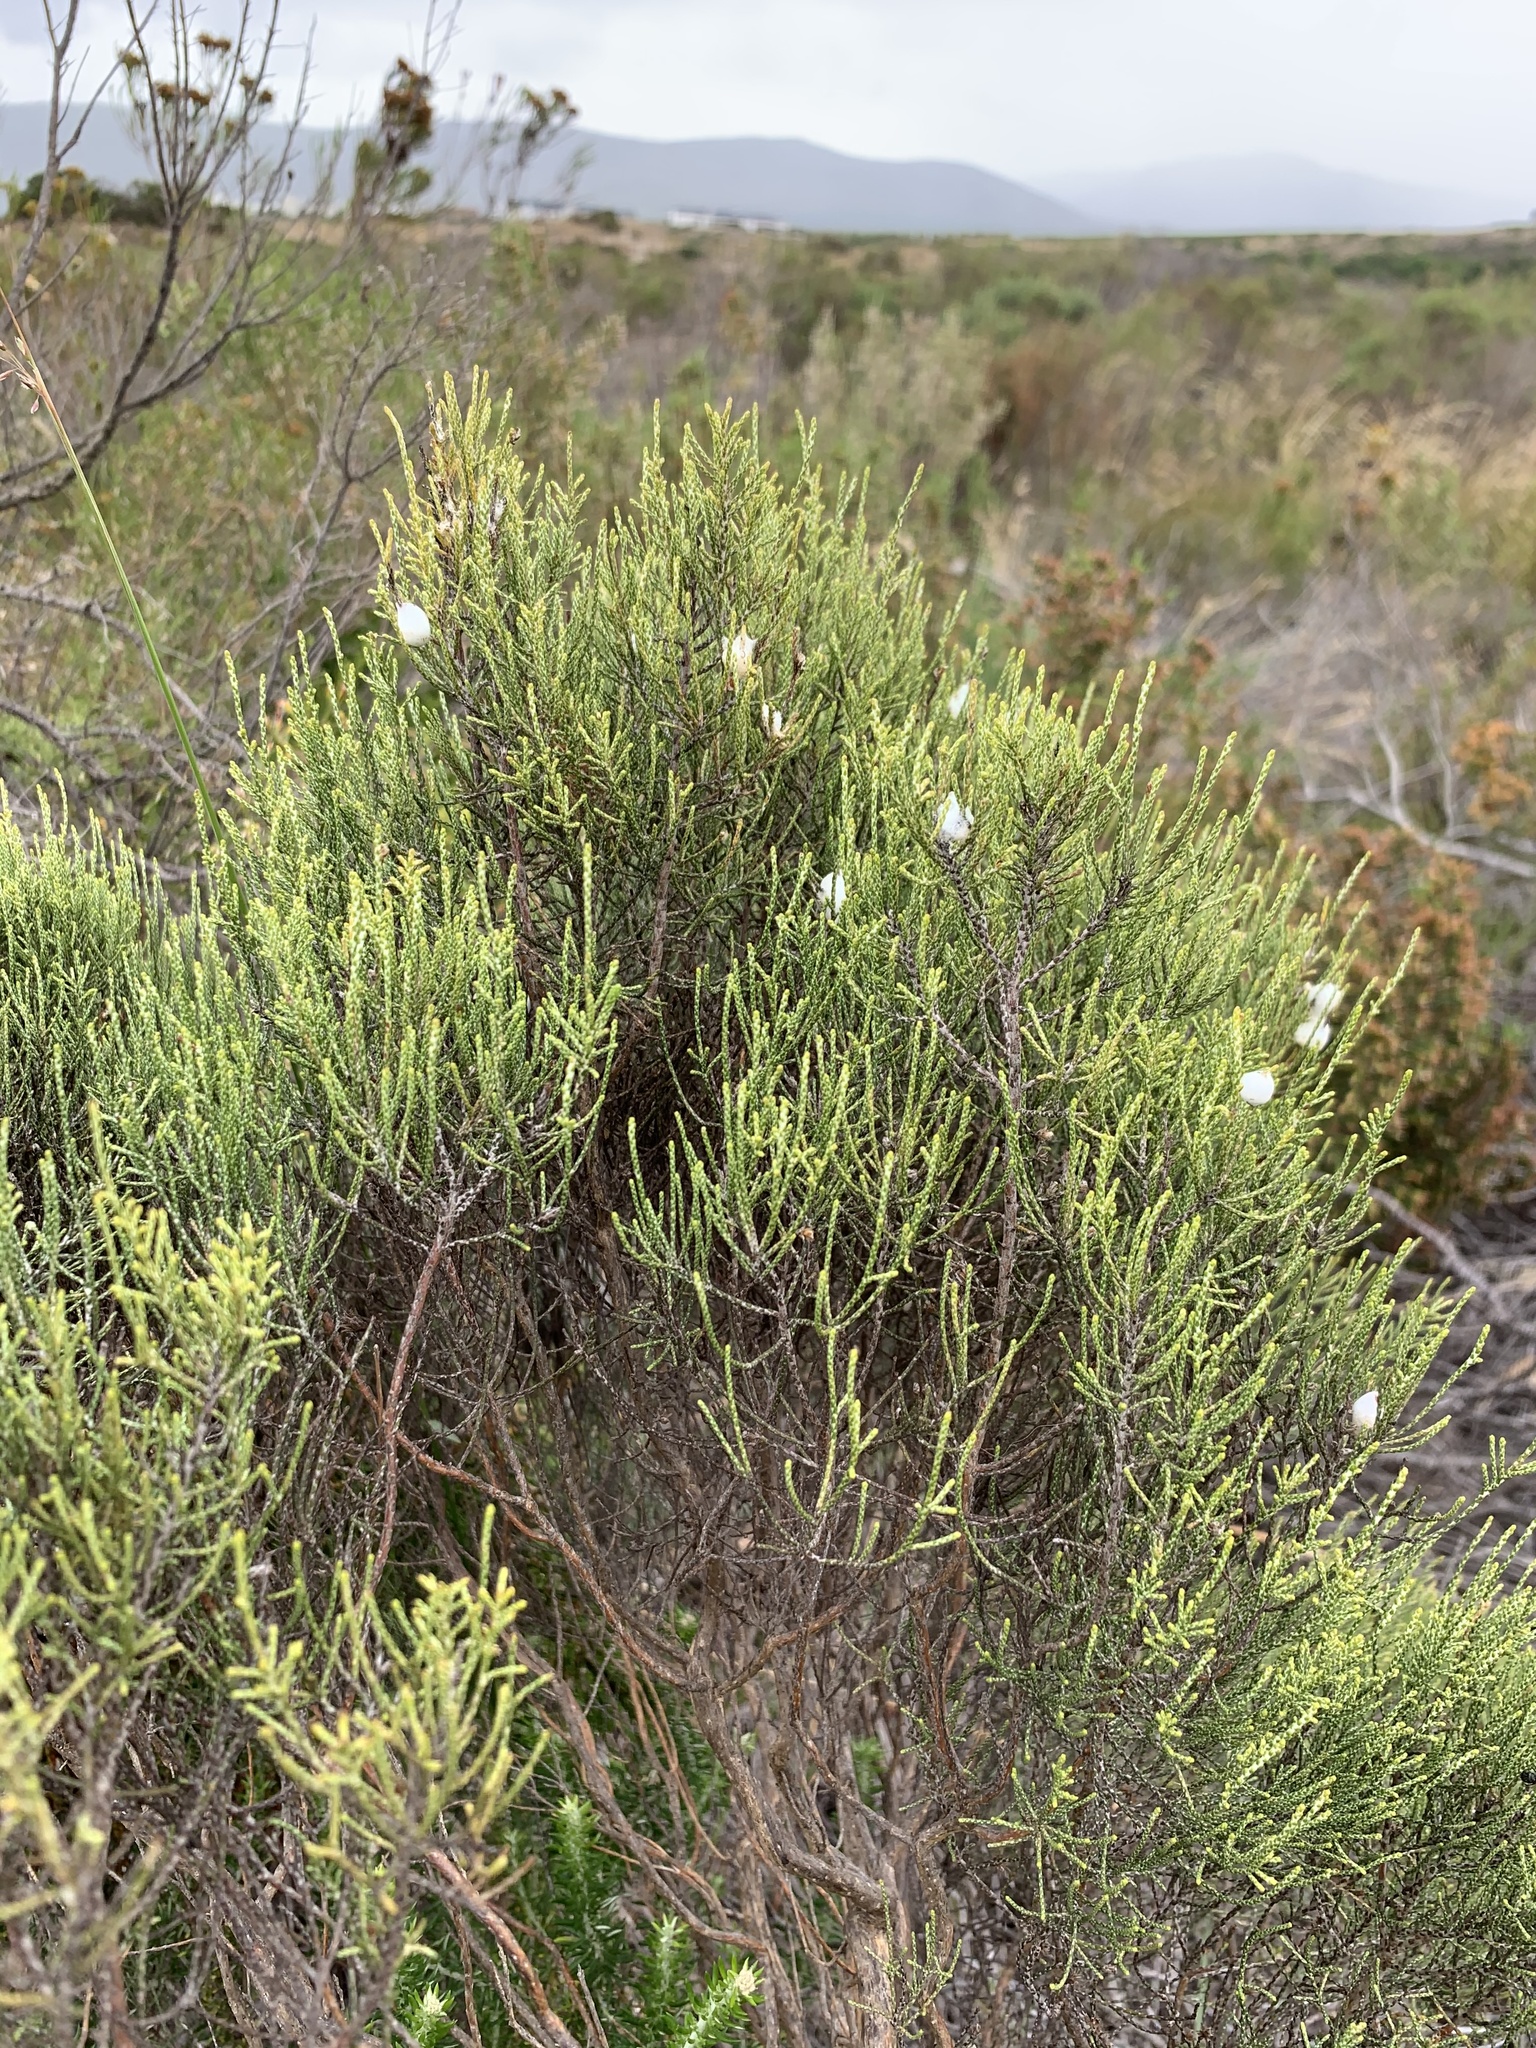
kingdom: Plantae
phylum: Tracheophyta
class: Magnoliopsida
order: Asterales
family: Asteraceae
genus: Dicerothamnus
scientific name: Dicerothamnus rhinocerotis
